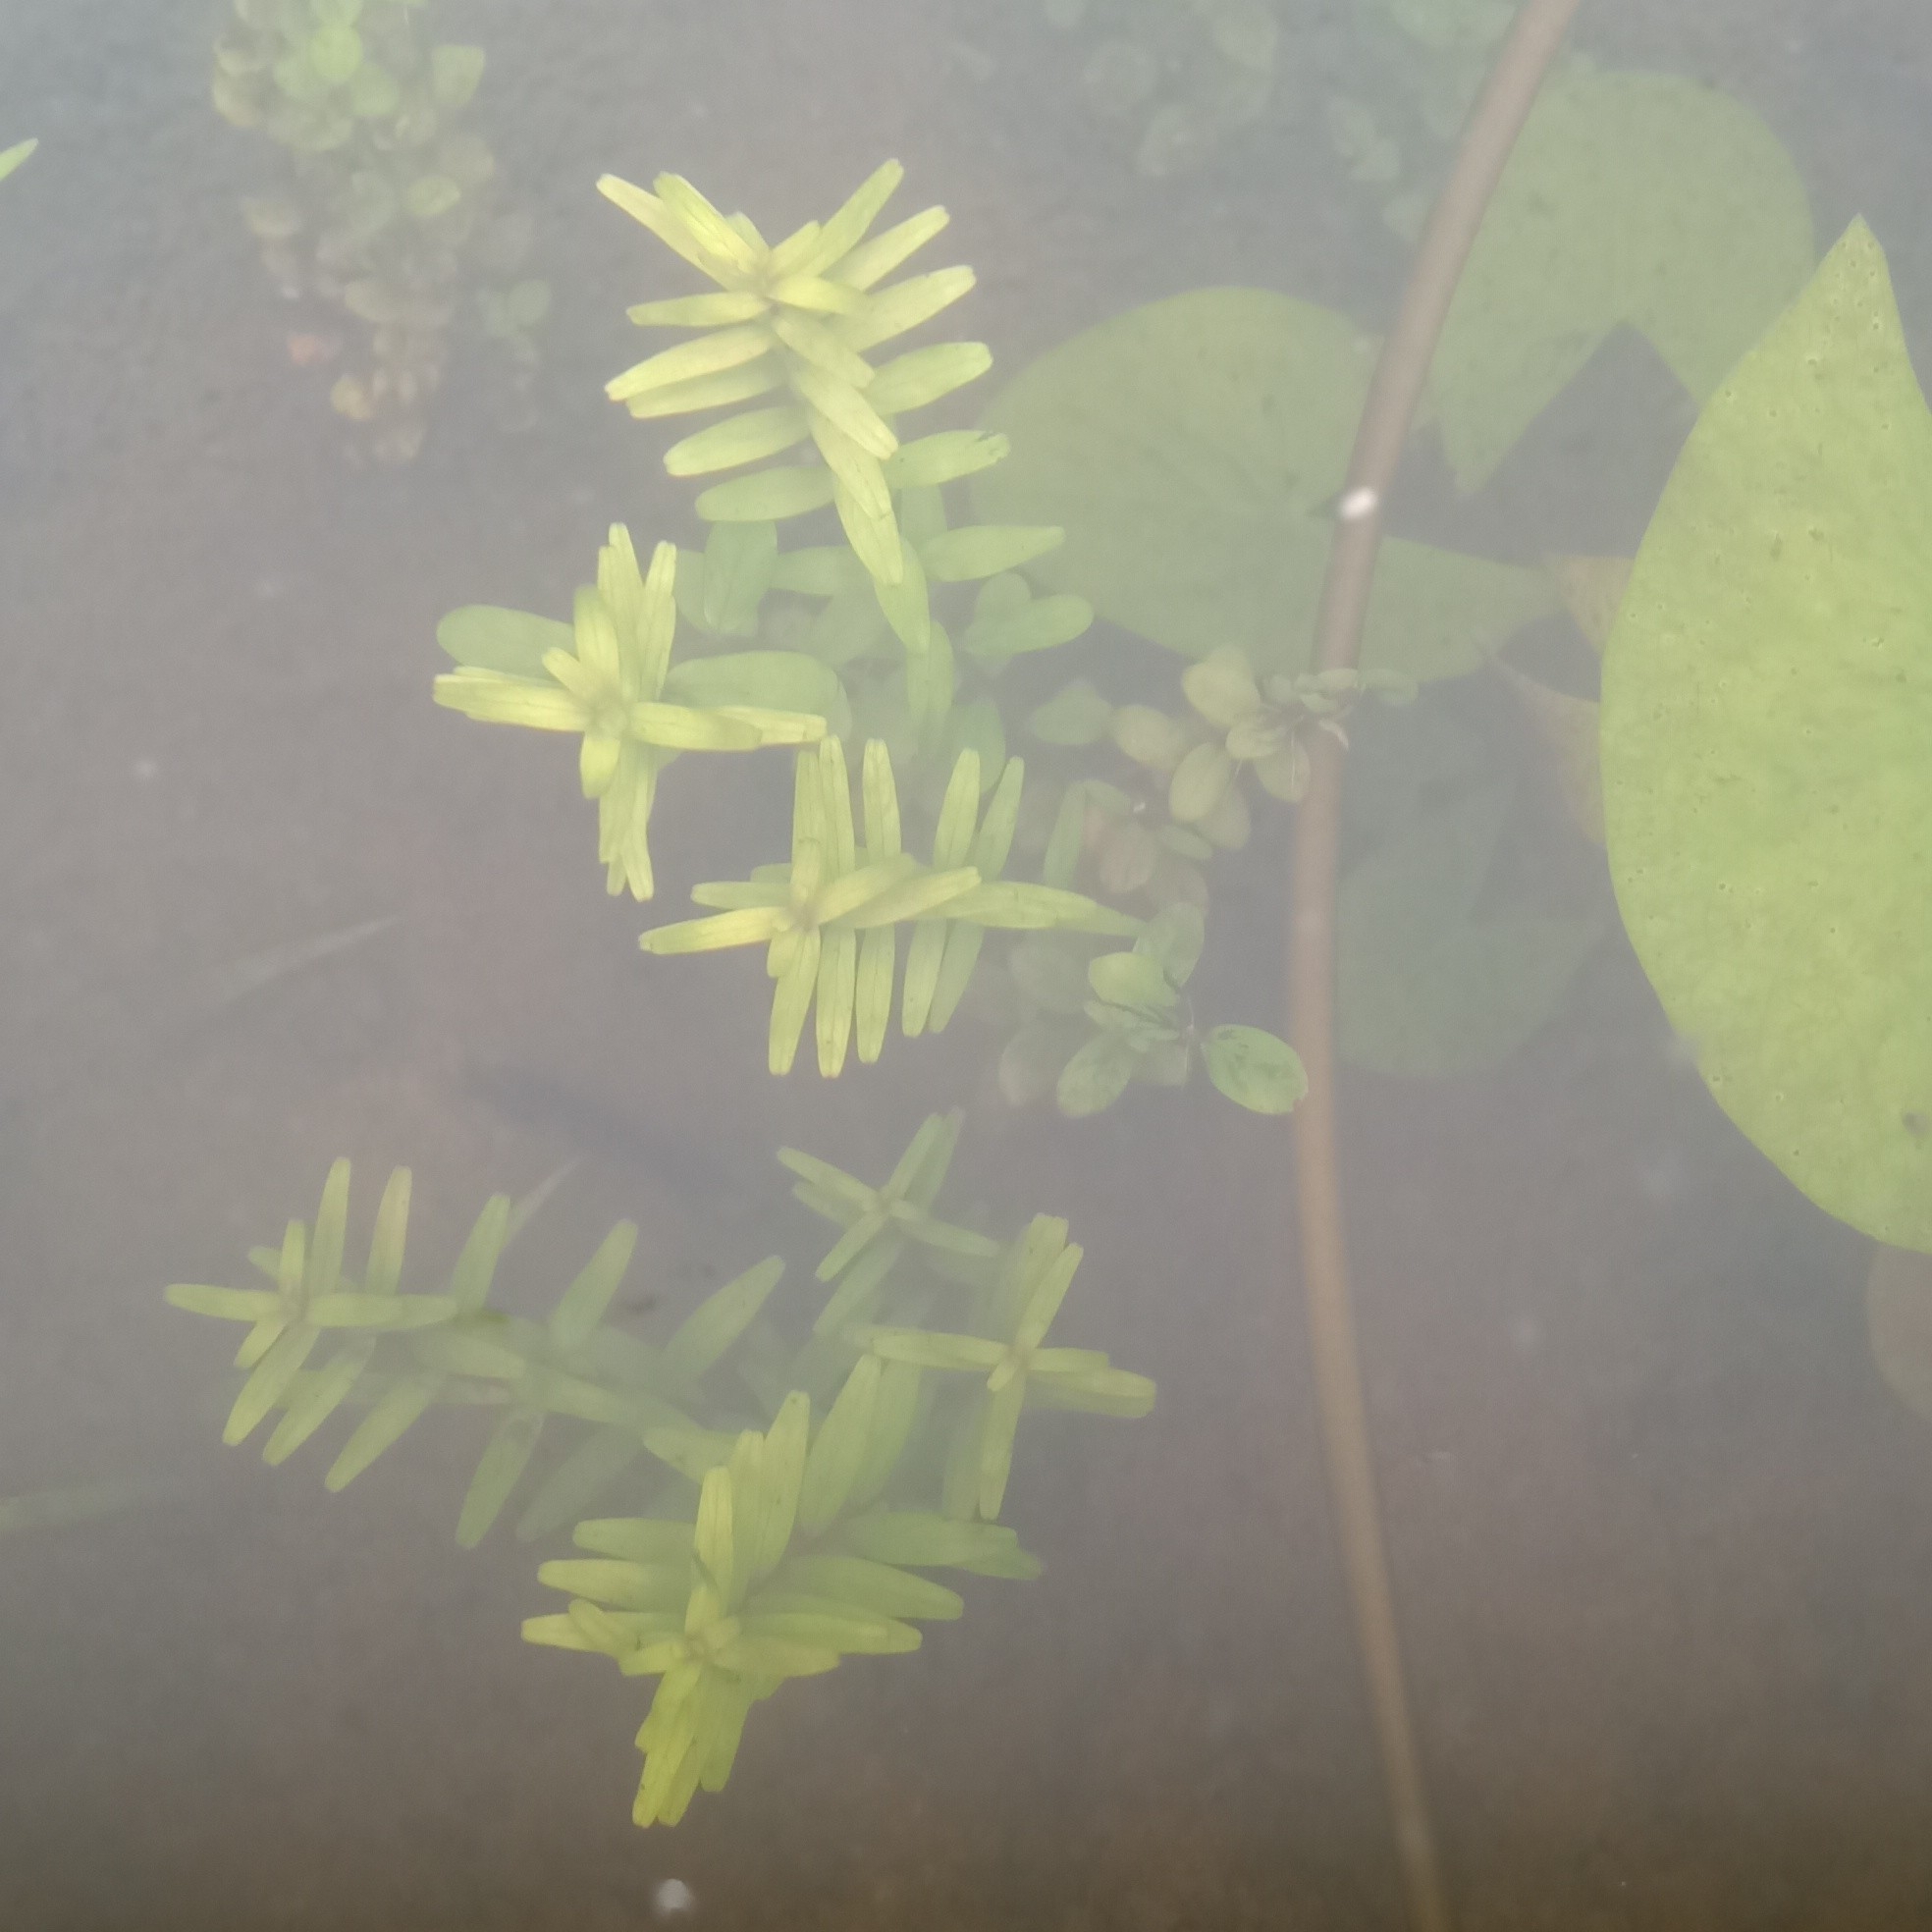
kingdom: Plantae
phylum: Tracheophyta
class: Magnoliopsida
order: Myrtales
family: Lythraceae
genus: Rotala
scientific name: Rotala rotundifolia
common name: Roundleaf toothcup
